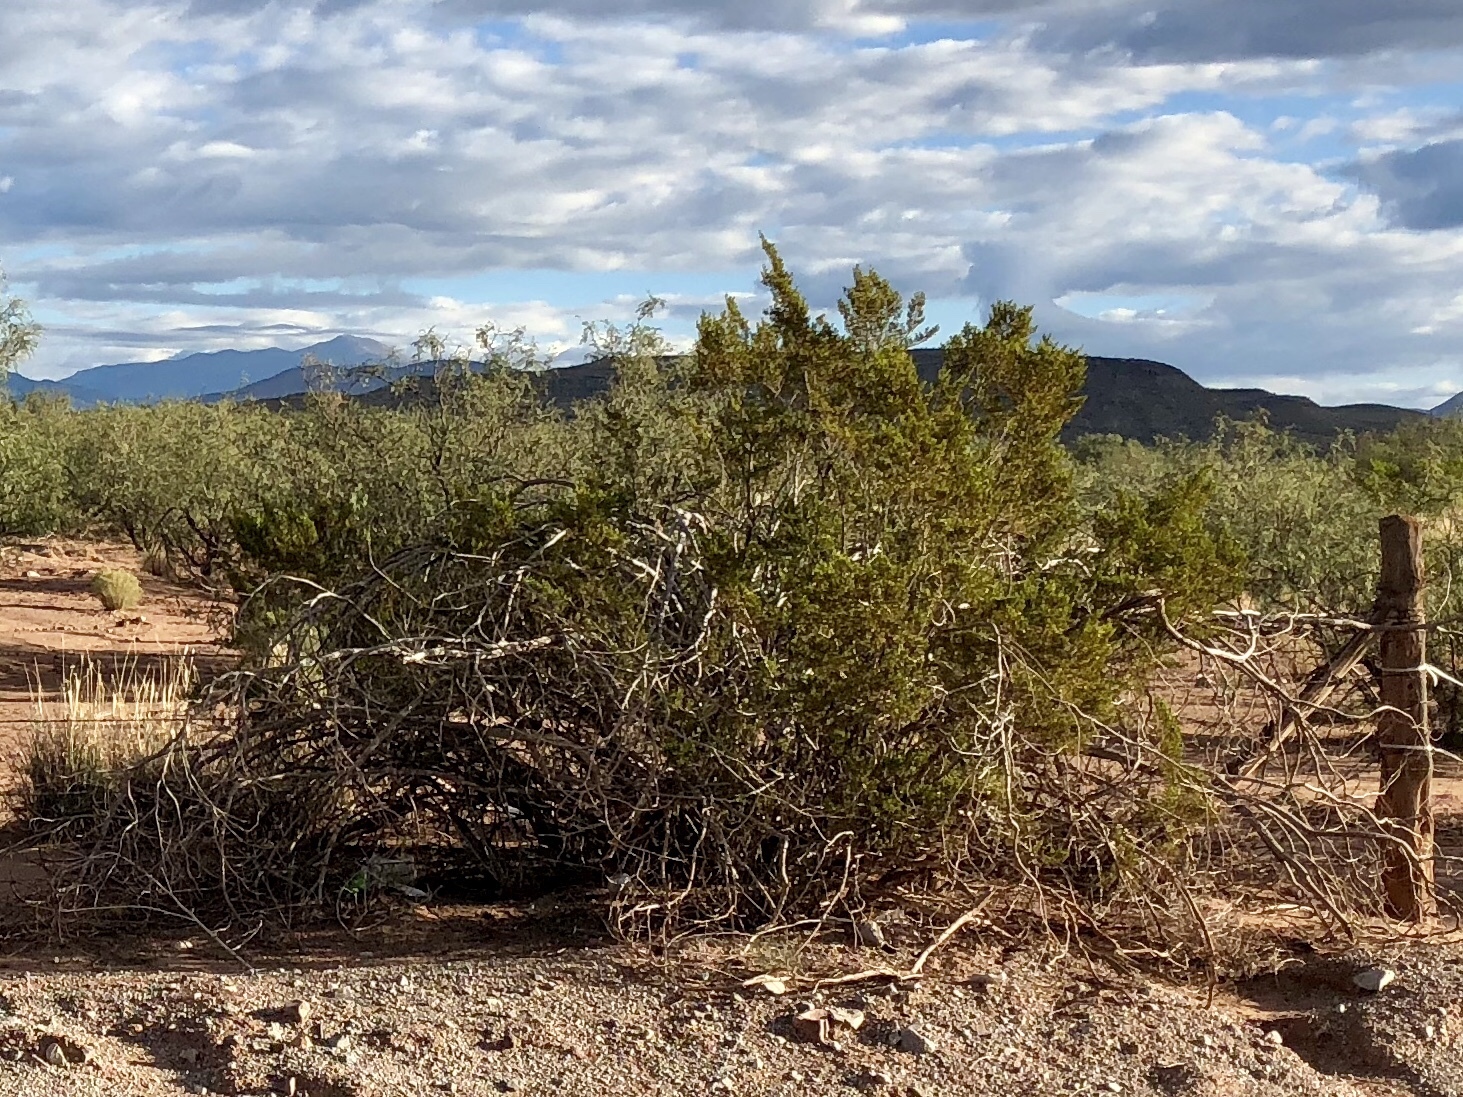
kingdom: Plantae
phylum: Tracheophyta
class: Magnoliopsida
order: Zygophyllales
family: Zygophyllaceae
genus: Larrea
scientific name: Larrea tridentata
